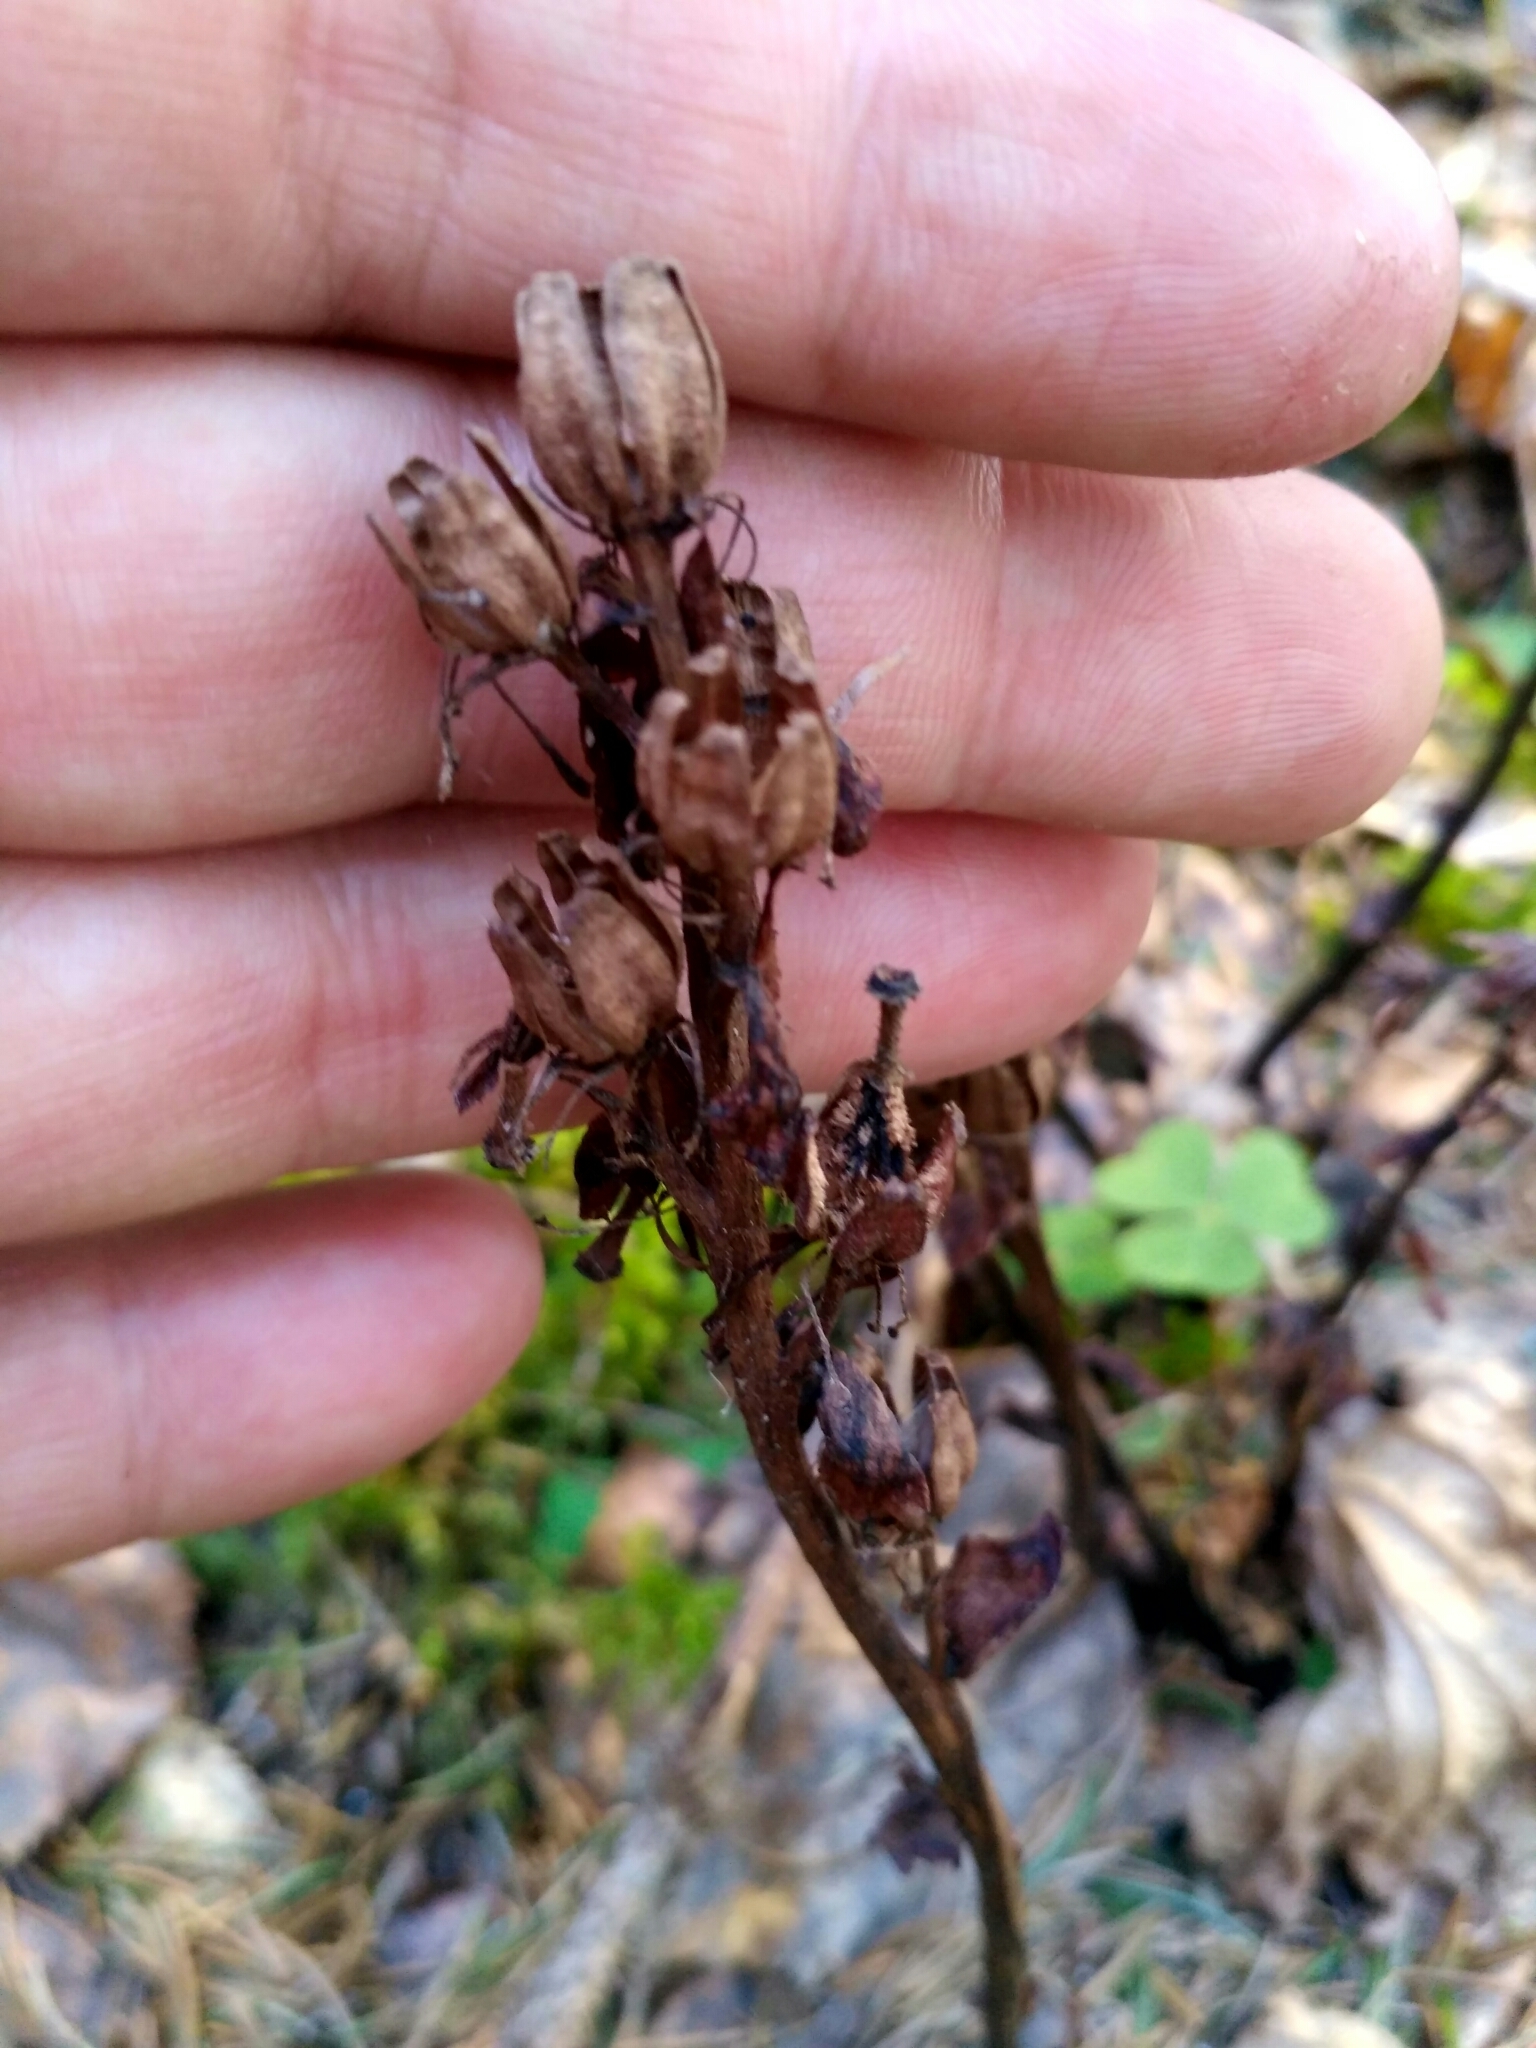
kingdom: Plantae
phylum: Tracheophyta
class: Magnoliopsida
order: Ericales
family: Ericaceae
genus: Hypopitys
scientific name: Hypopitys monotropa
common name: Yellow bird's-nest
